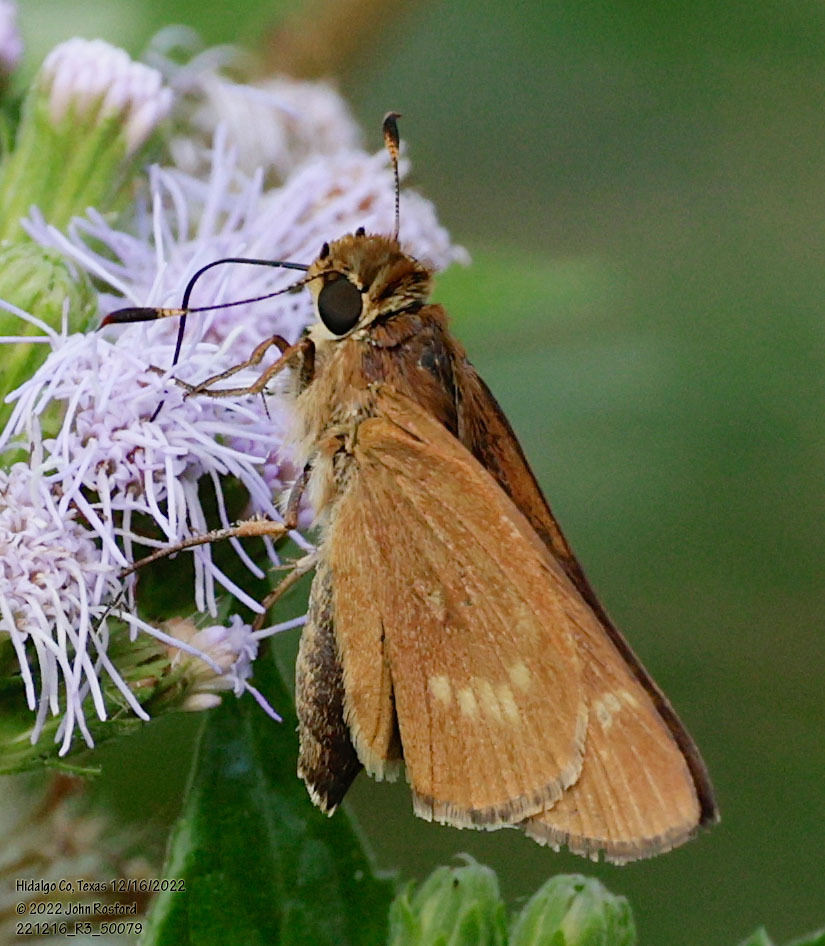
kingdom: Animalia
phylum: Arthropoda
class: Insecta
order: Lepidoptera
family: Hesperiidae
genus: Mellana
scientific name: Mellana eulogius
